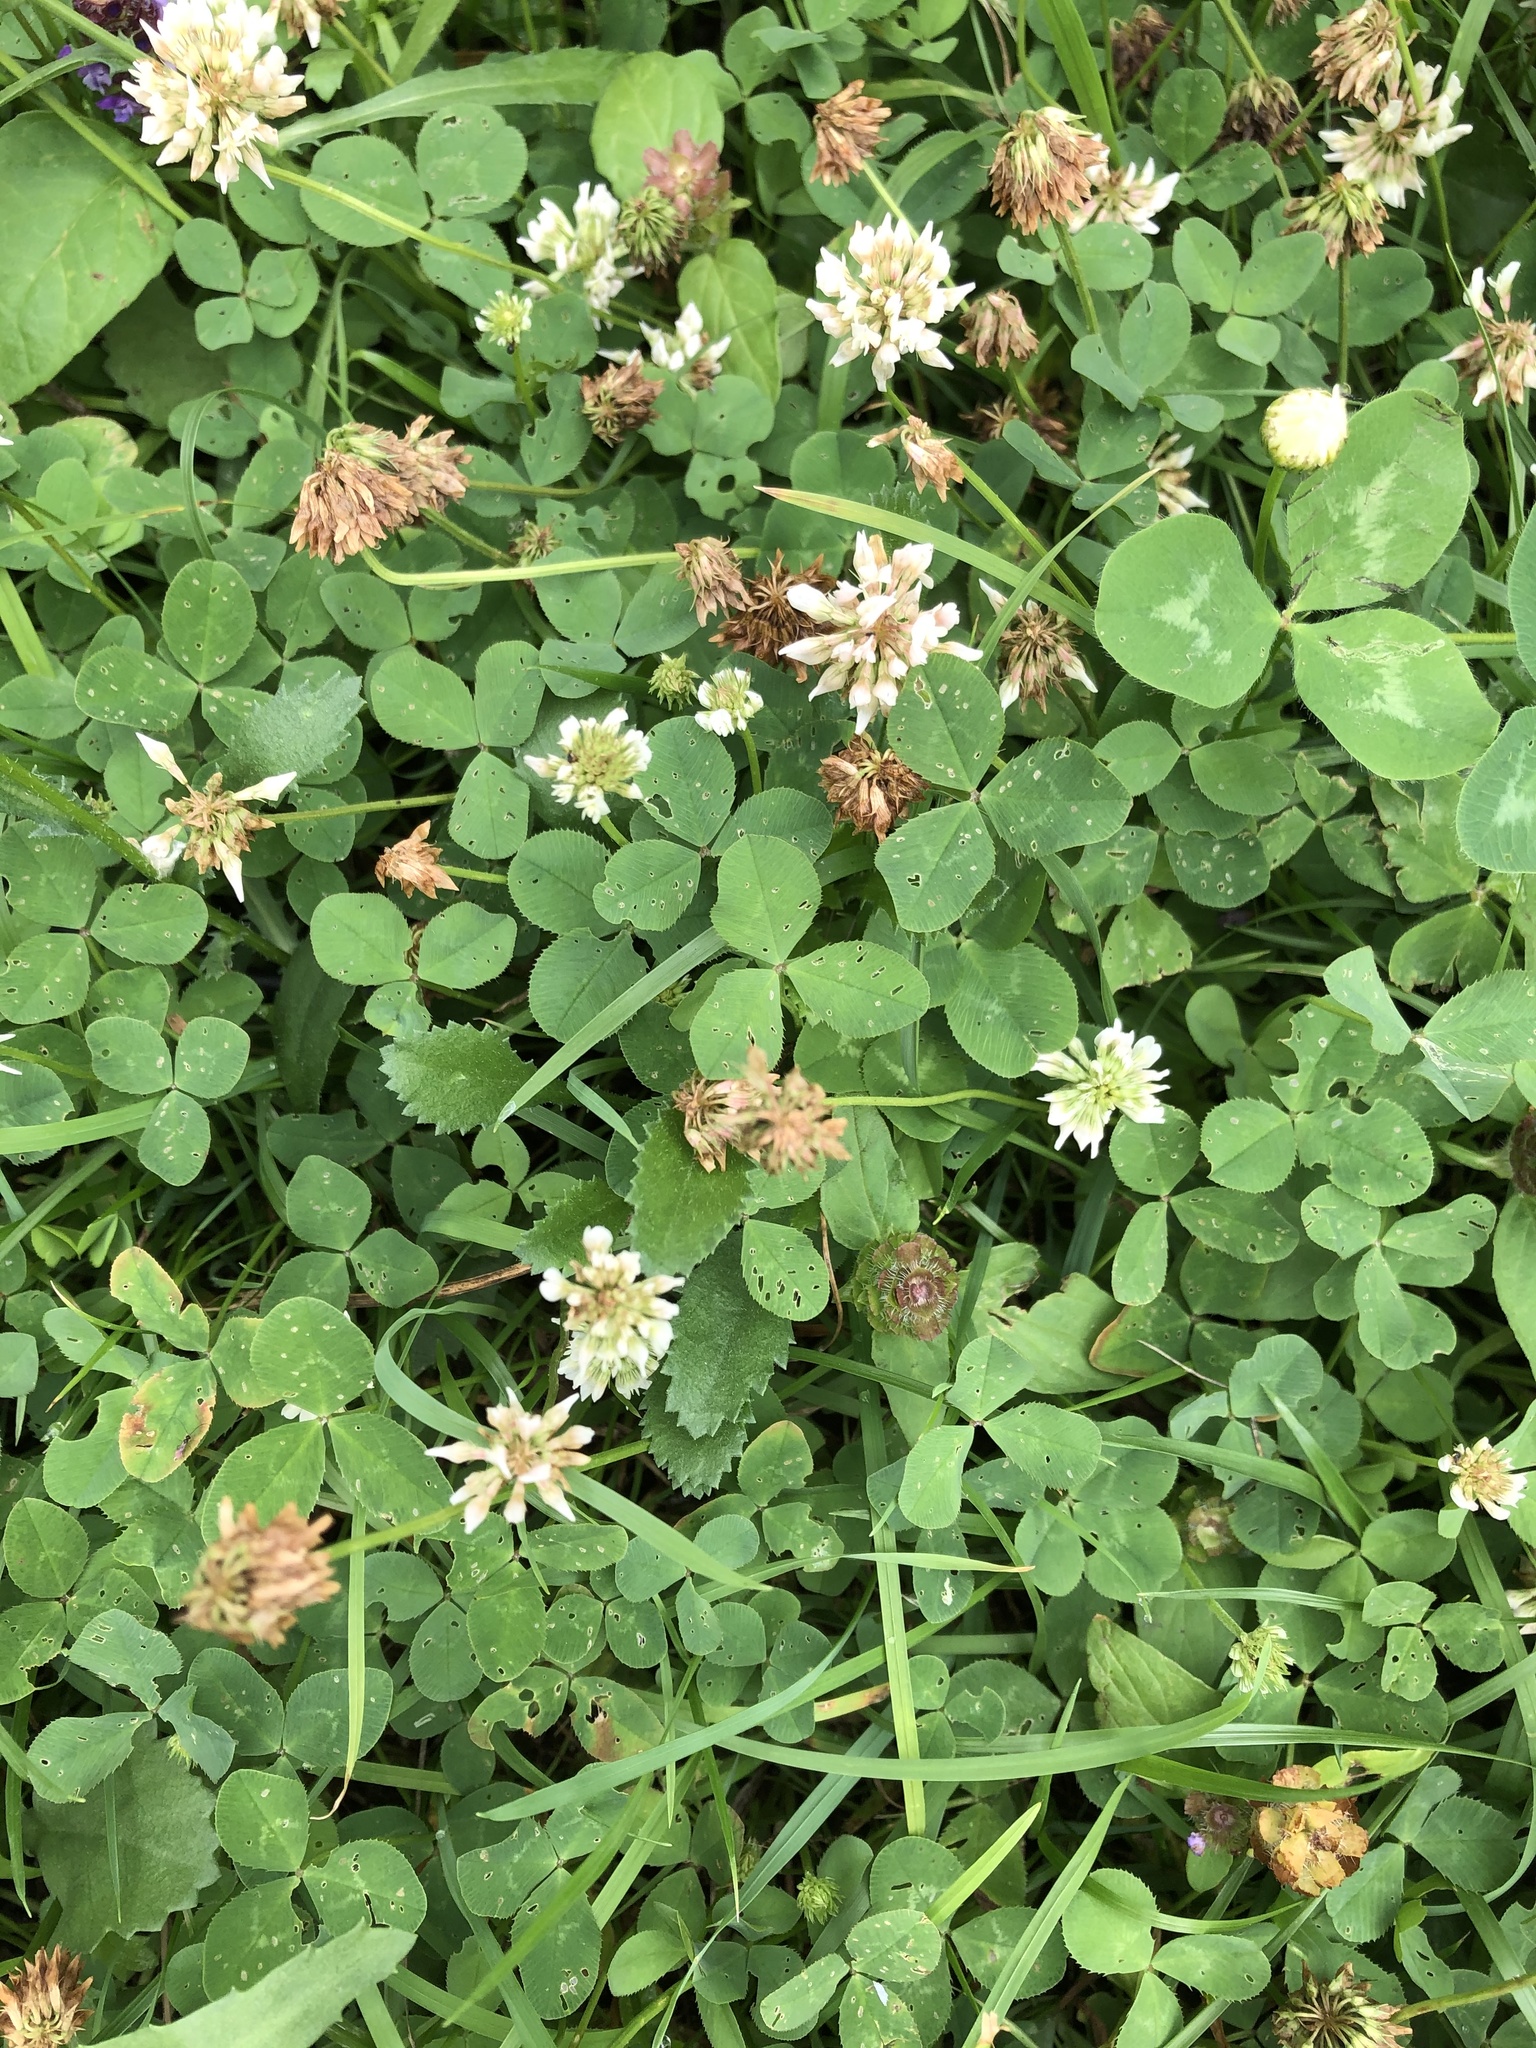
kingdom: Plantae
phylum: Tracheophyta
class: Magnoliopsida
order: Fabales
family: Fabaceae
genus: Trifolium
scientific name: Trifolium repens
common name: White clover
